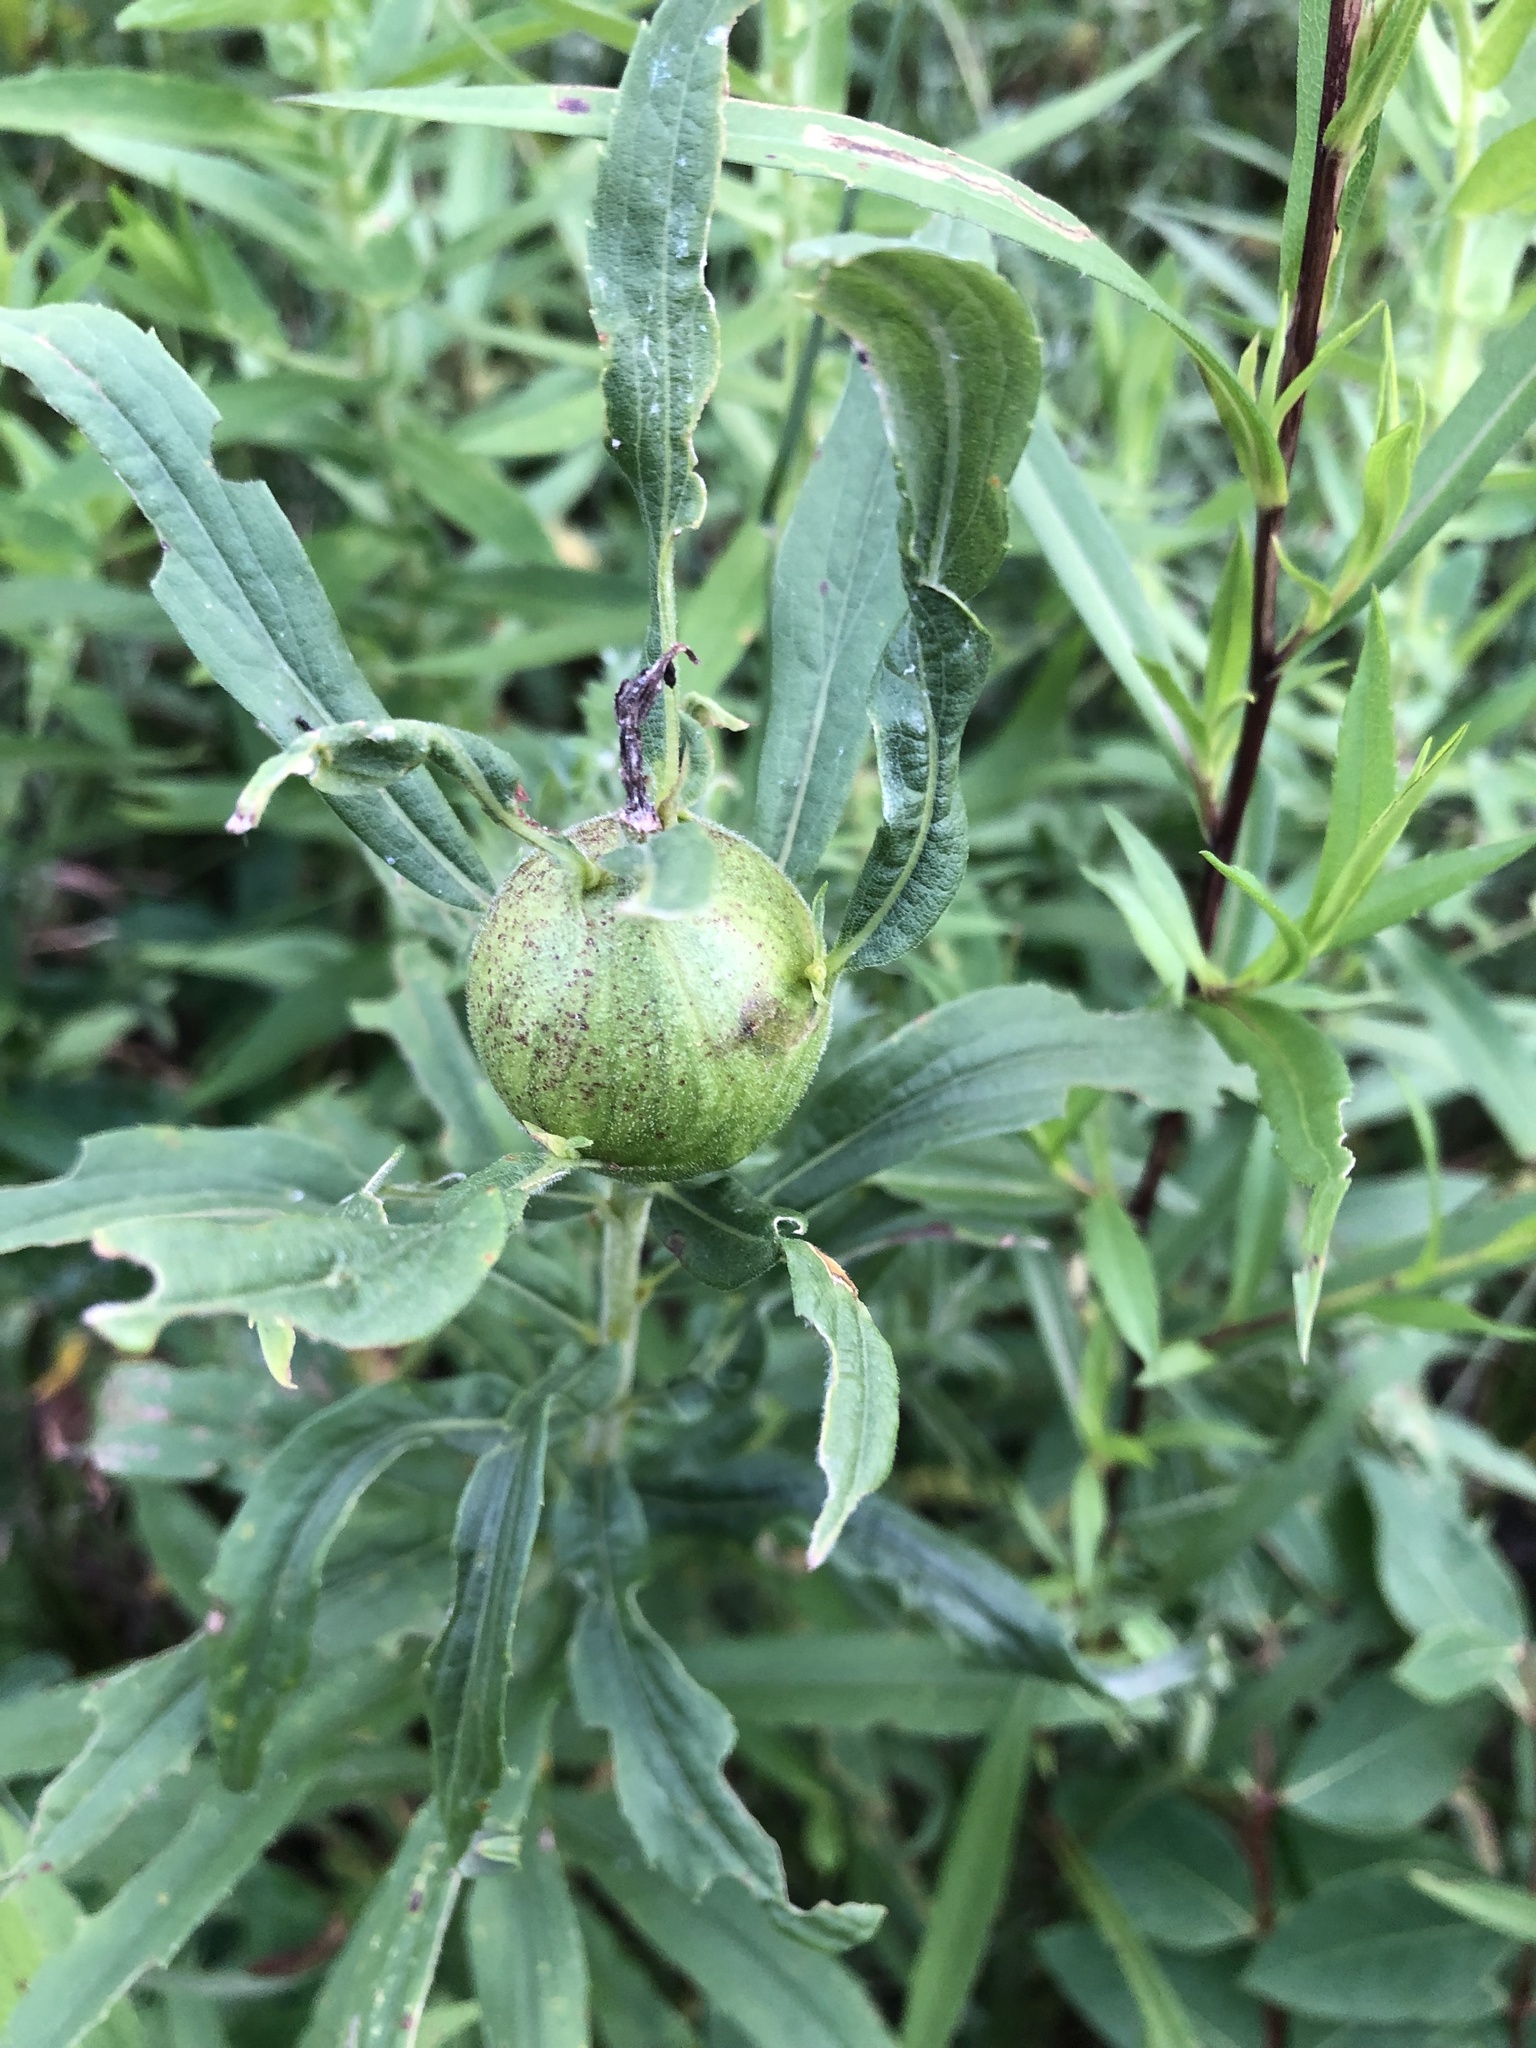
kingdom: Animalia
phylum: Arthropoda
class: Insecta
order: Diptera
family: Tephritidae
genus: Eurosta
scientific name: Eurosta solidaginis
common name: Goldenrod gall fly
